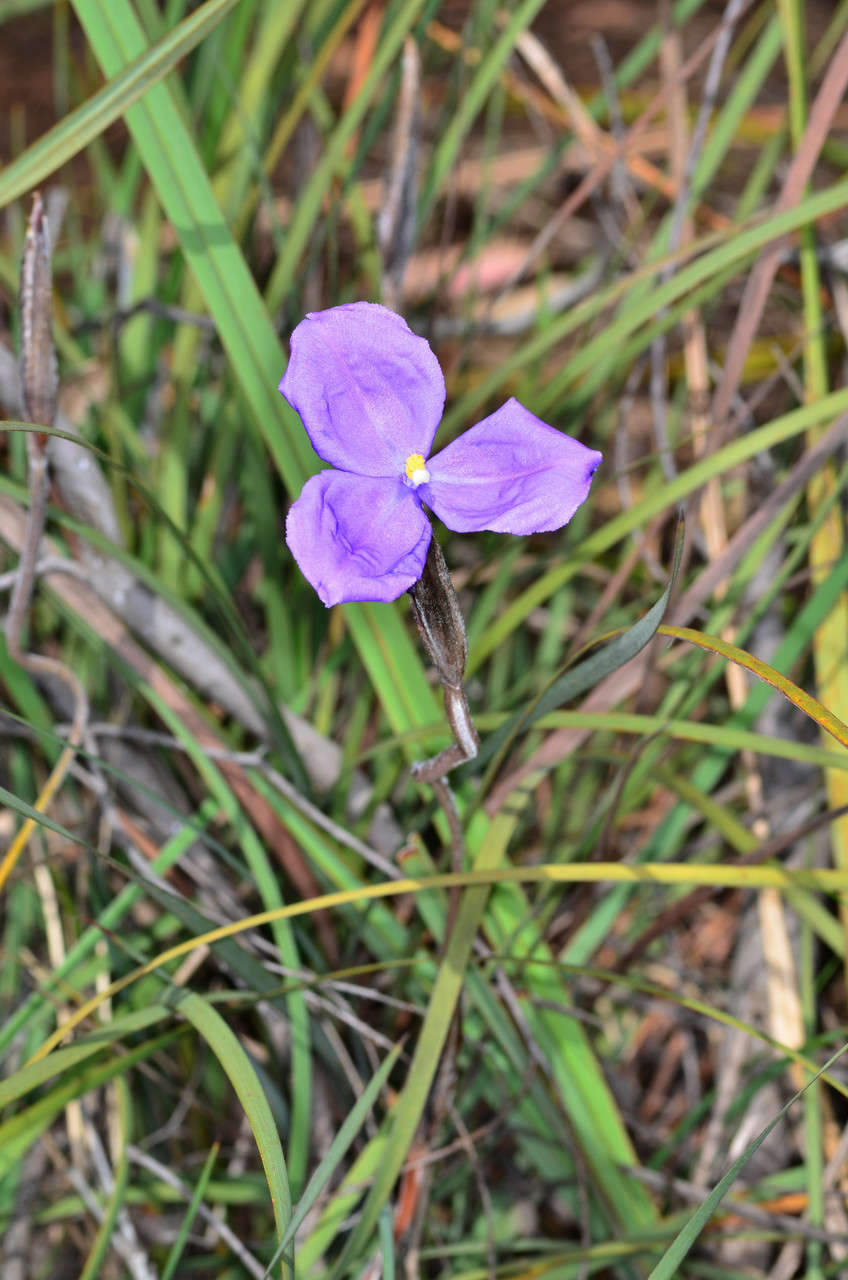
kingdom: Plantae
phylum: Tracheophyta
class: Liliopsida
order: Asparagales
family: Iridaceae
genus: Patersonia
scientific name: Patersonia sericea
